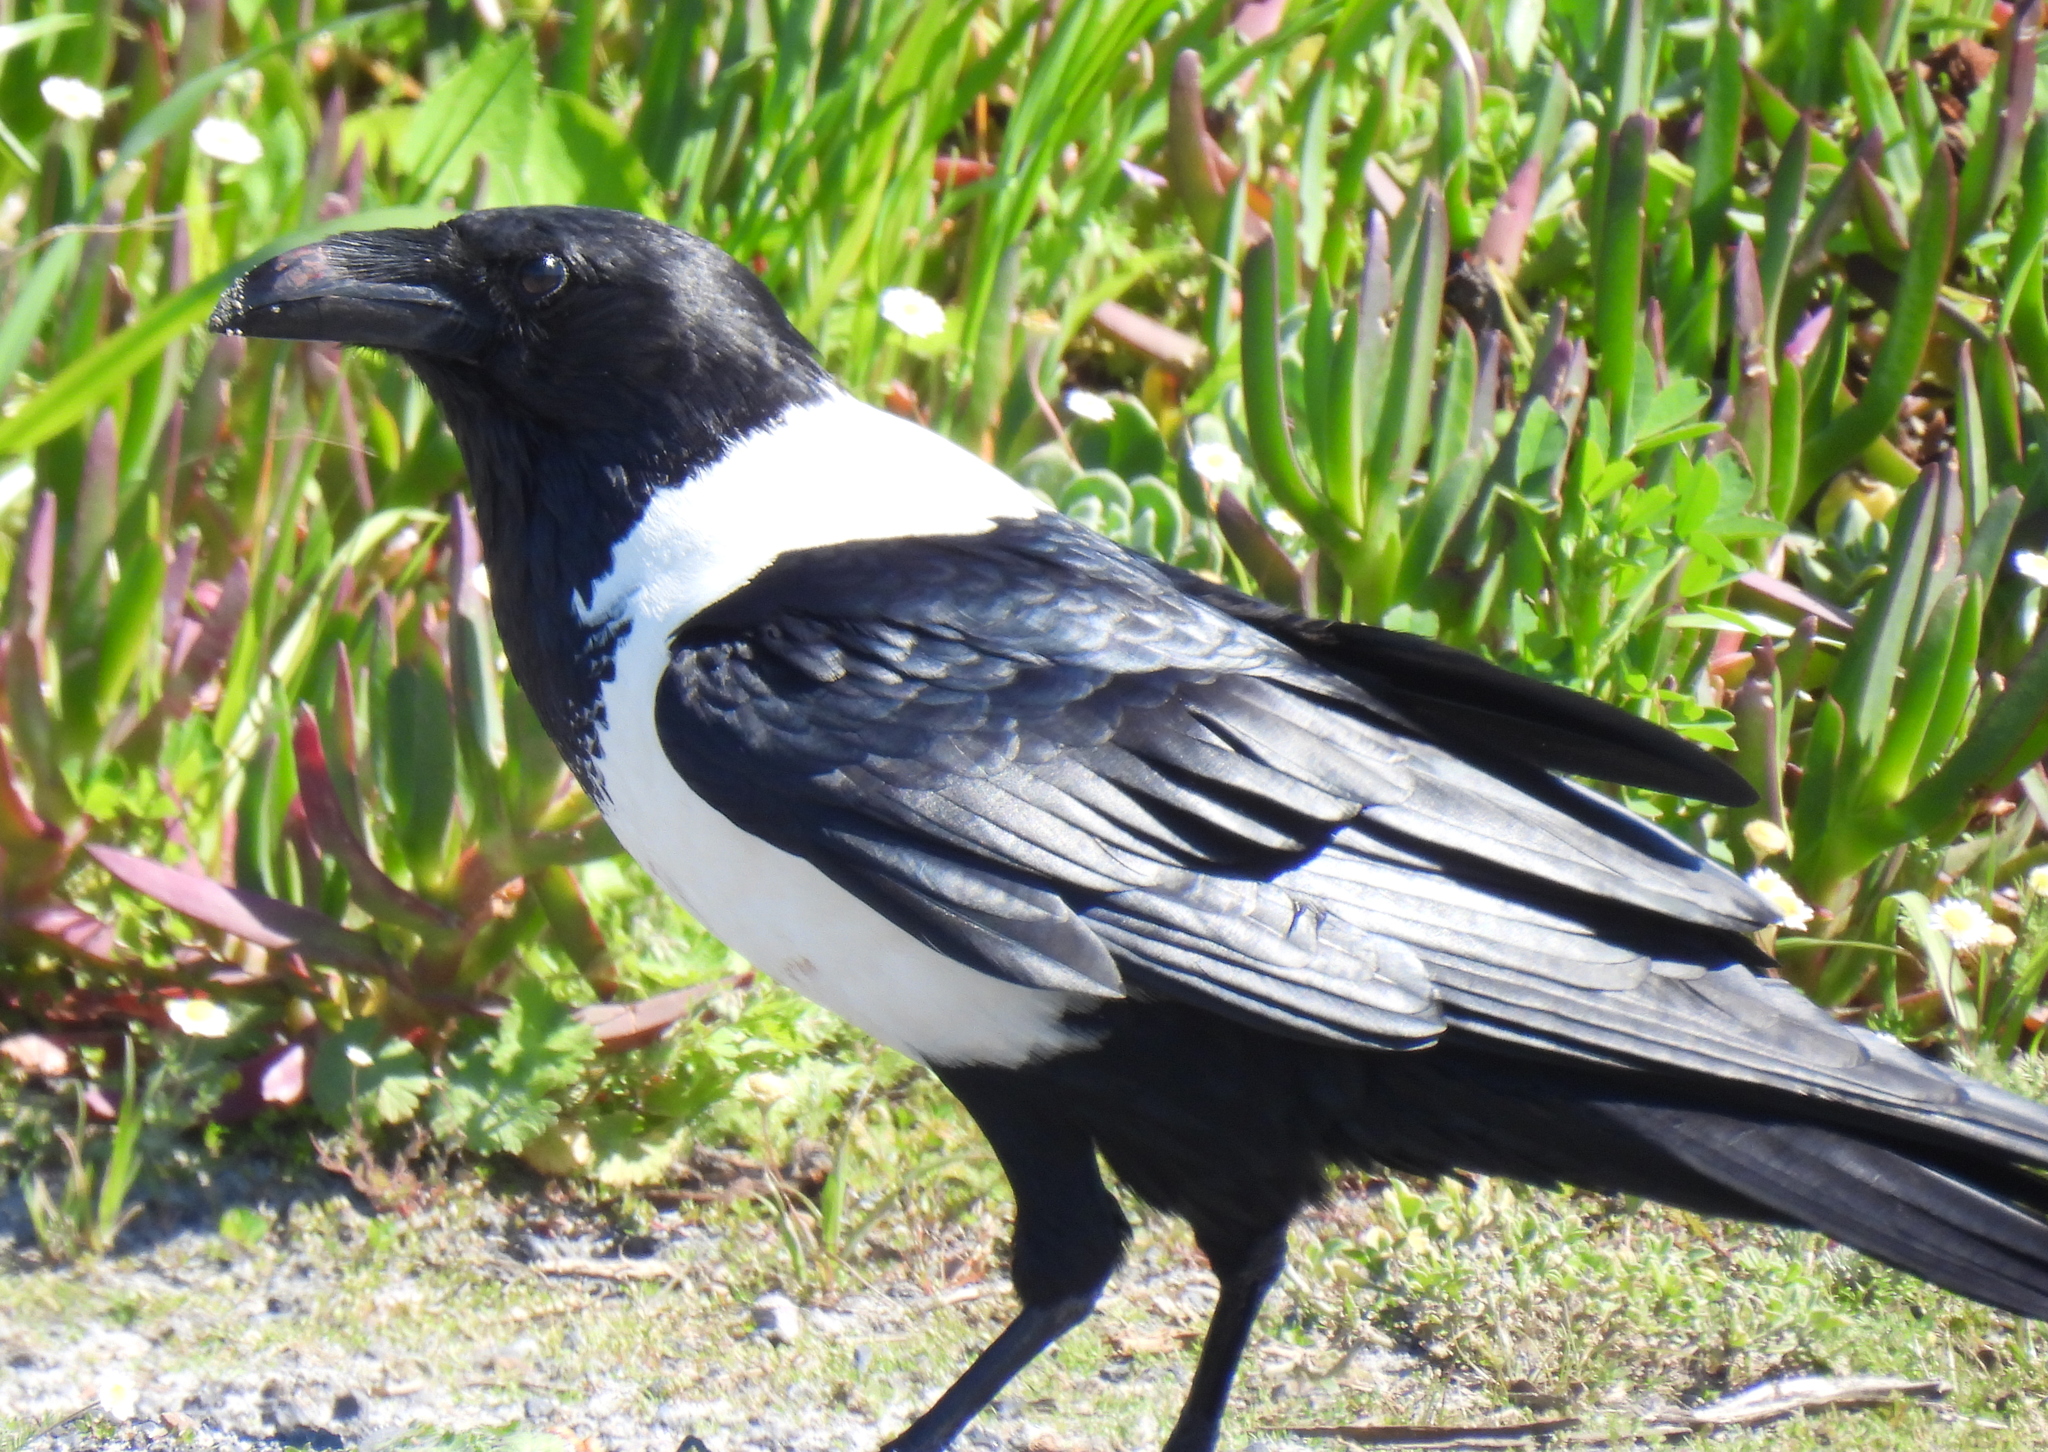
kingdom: Animalia
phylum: Chordata
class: Aves
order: Passeriformes
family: Corvidae
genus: Corvus
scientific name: Corvus albus
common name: Pied crow
